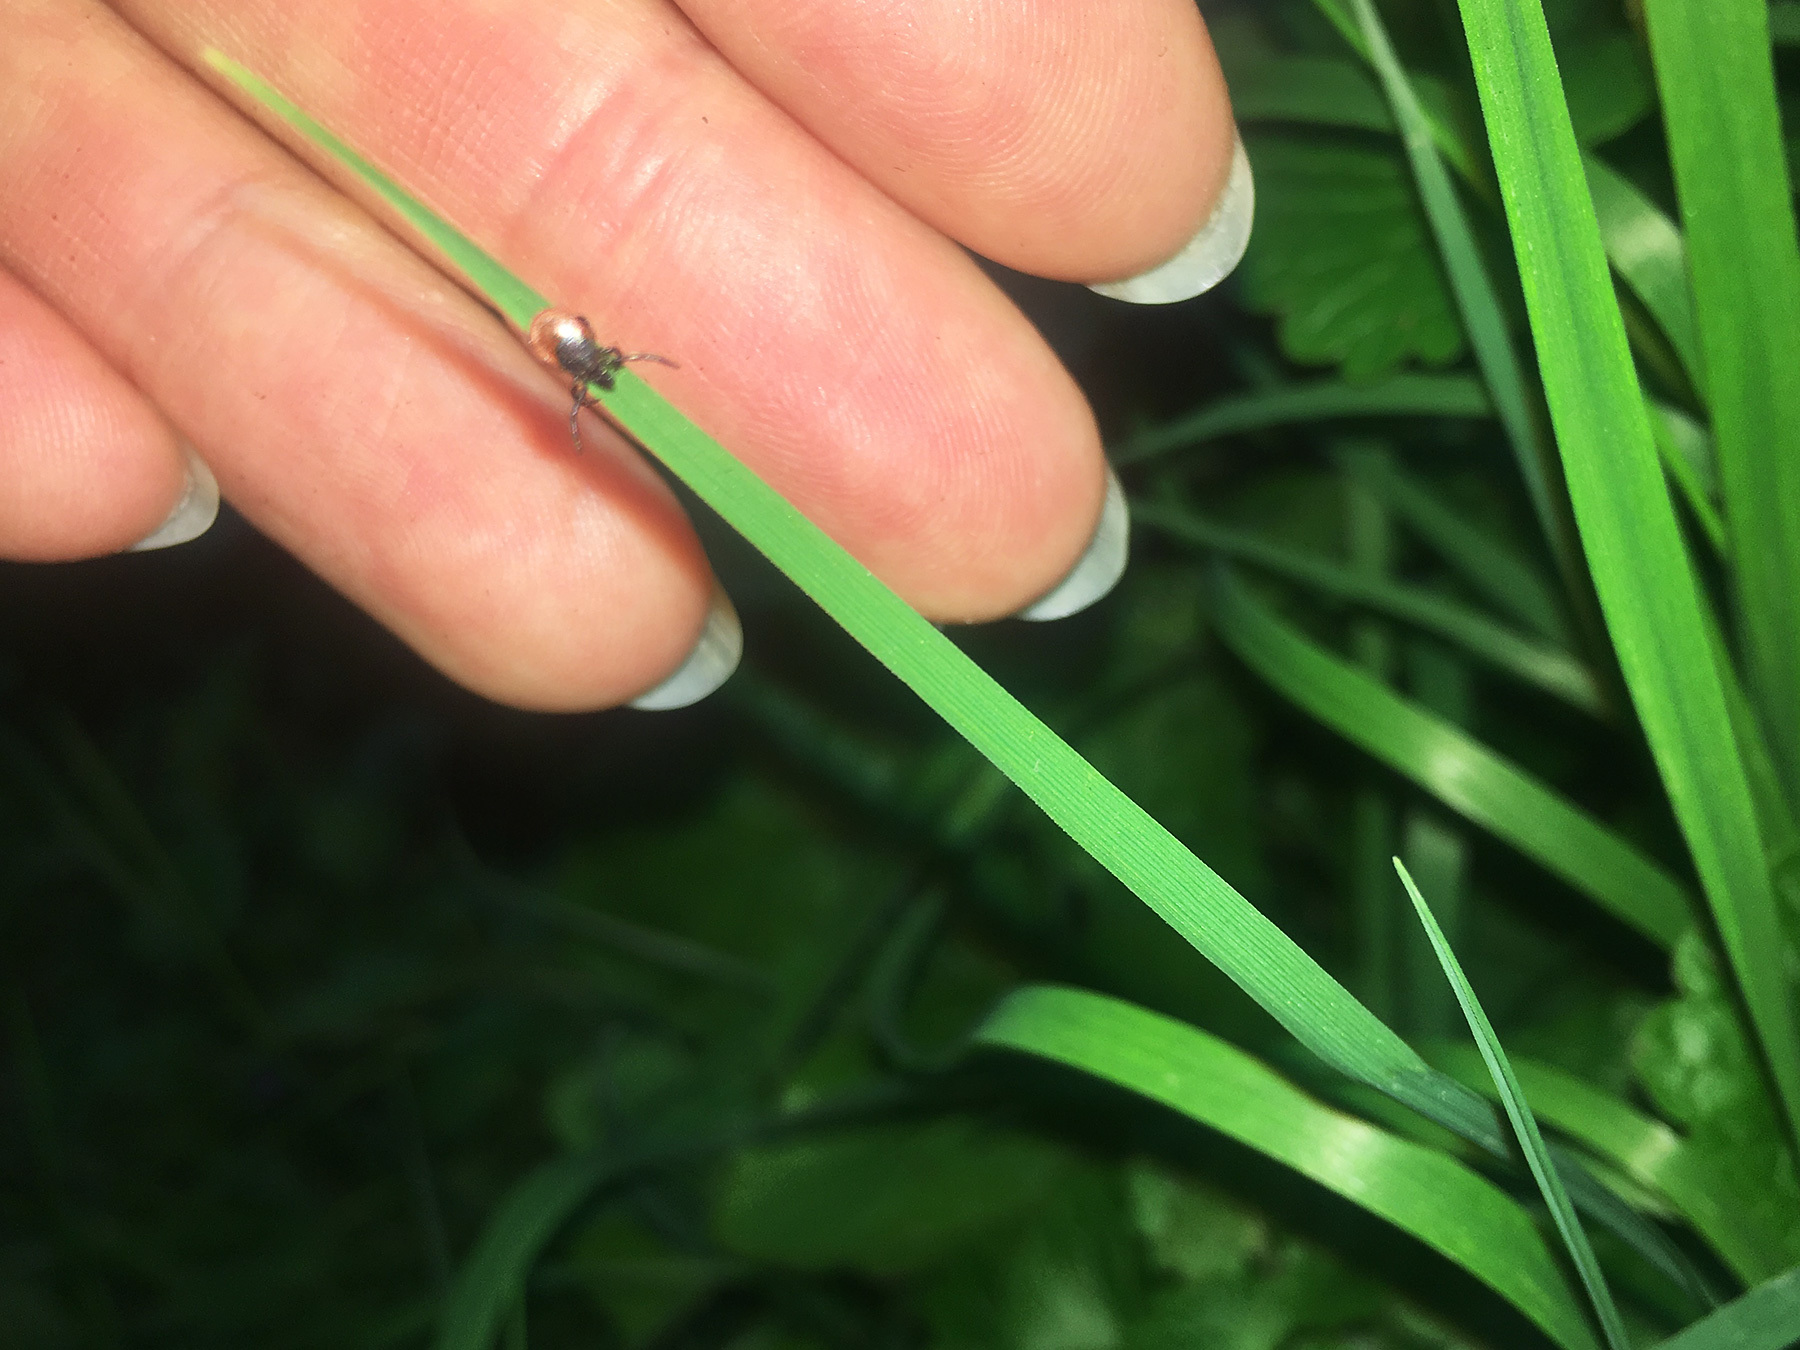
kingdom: Animalia
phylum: Arthropoda
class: Arachnida
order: Ixodida
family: Ixodidae
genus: Ixodes
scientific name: Ixodes ricinus
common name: Castor bean tick
